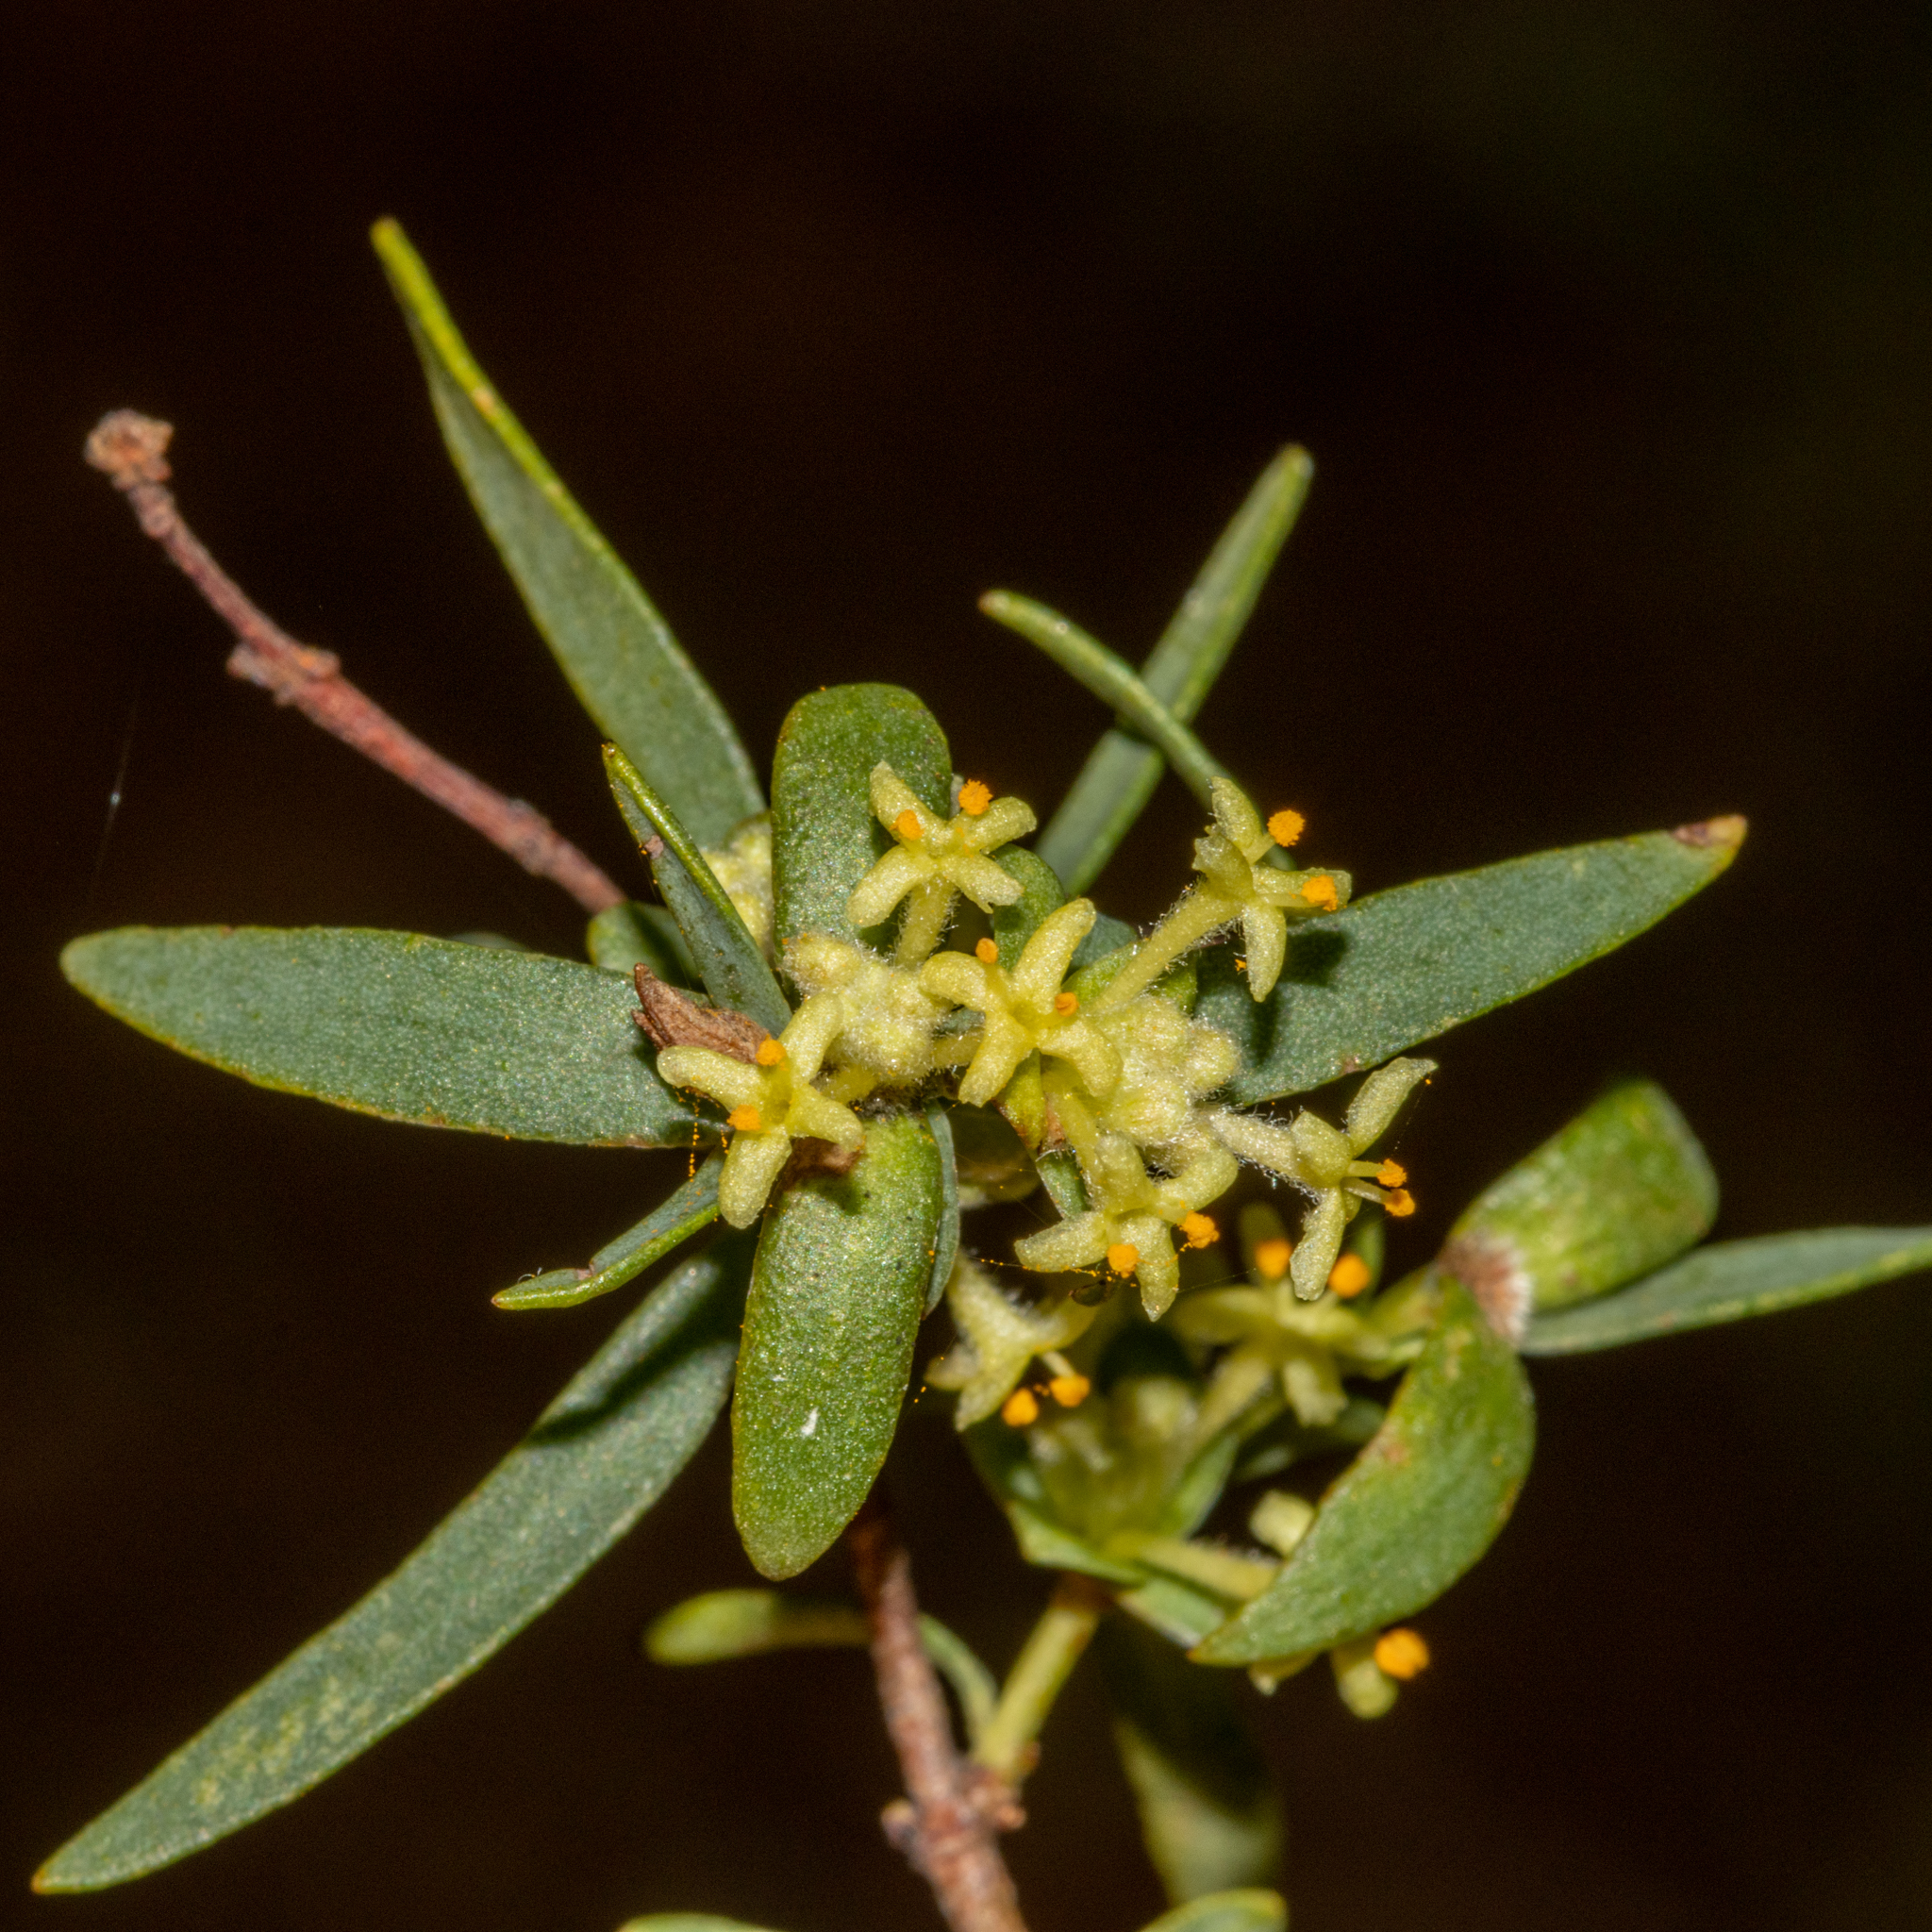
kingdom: Plantae
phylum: Tracheophyta
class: Magnoliopsida
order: Malvales
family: Thymelaeaceae
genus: Pimelea
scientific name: Pimelea microcephala
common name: Mallee riceflower
